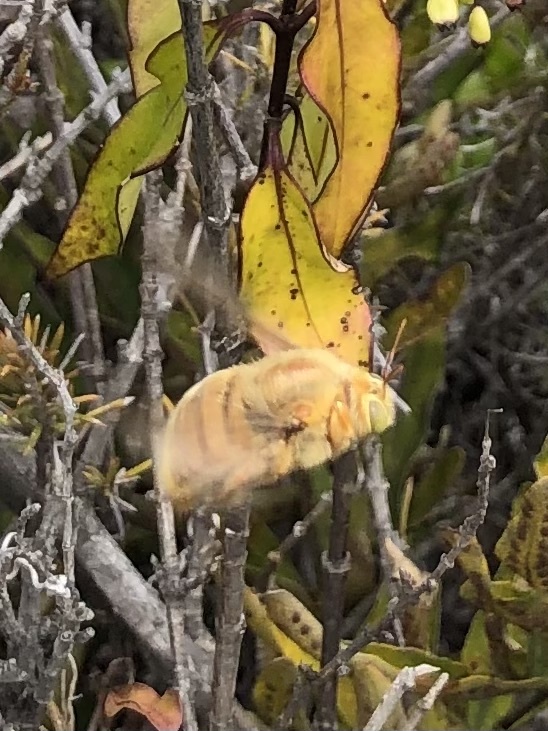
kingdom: Animalia
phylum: Arthropoda
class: Insecta
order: Hymenoptera
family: Apidae
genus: Xylocopa
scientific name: Xylocopa darwini
